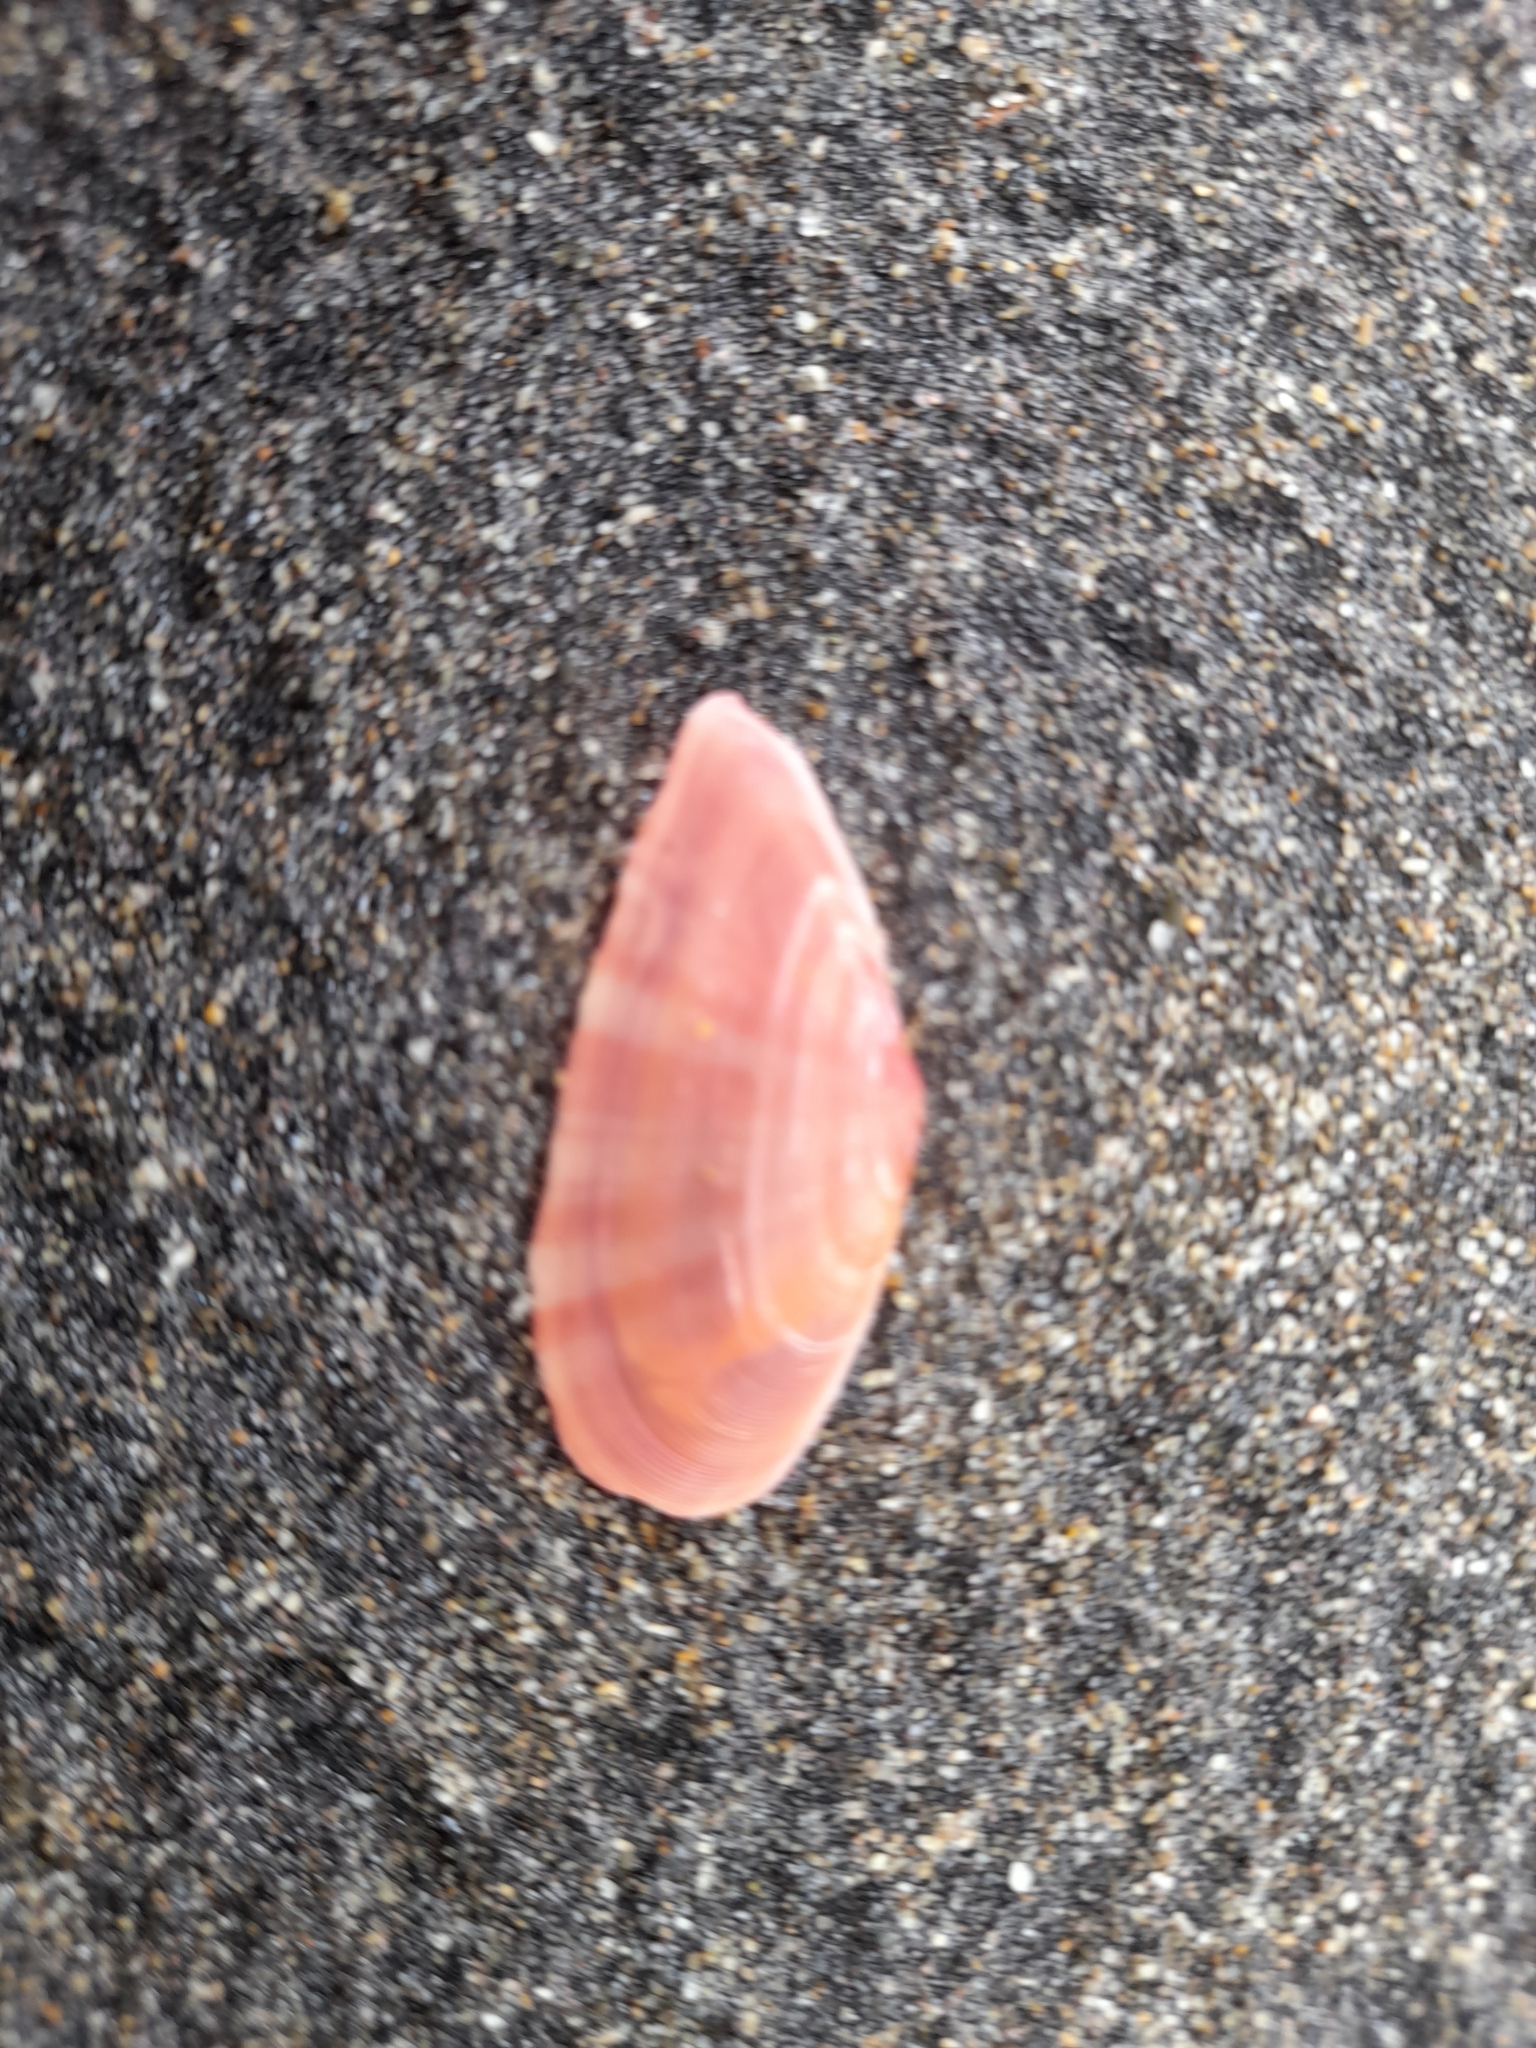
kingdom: Animalia
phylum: Mollusca
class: Bivalvia
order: Cardiida
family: Tellinidae
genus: Moerella
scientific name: Moerella pulchella
